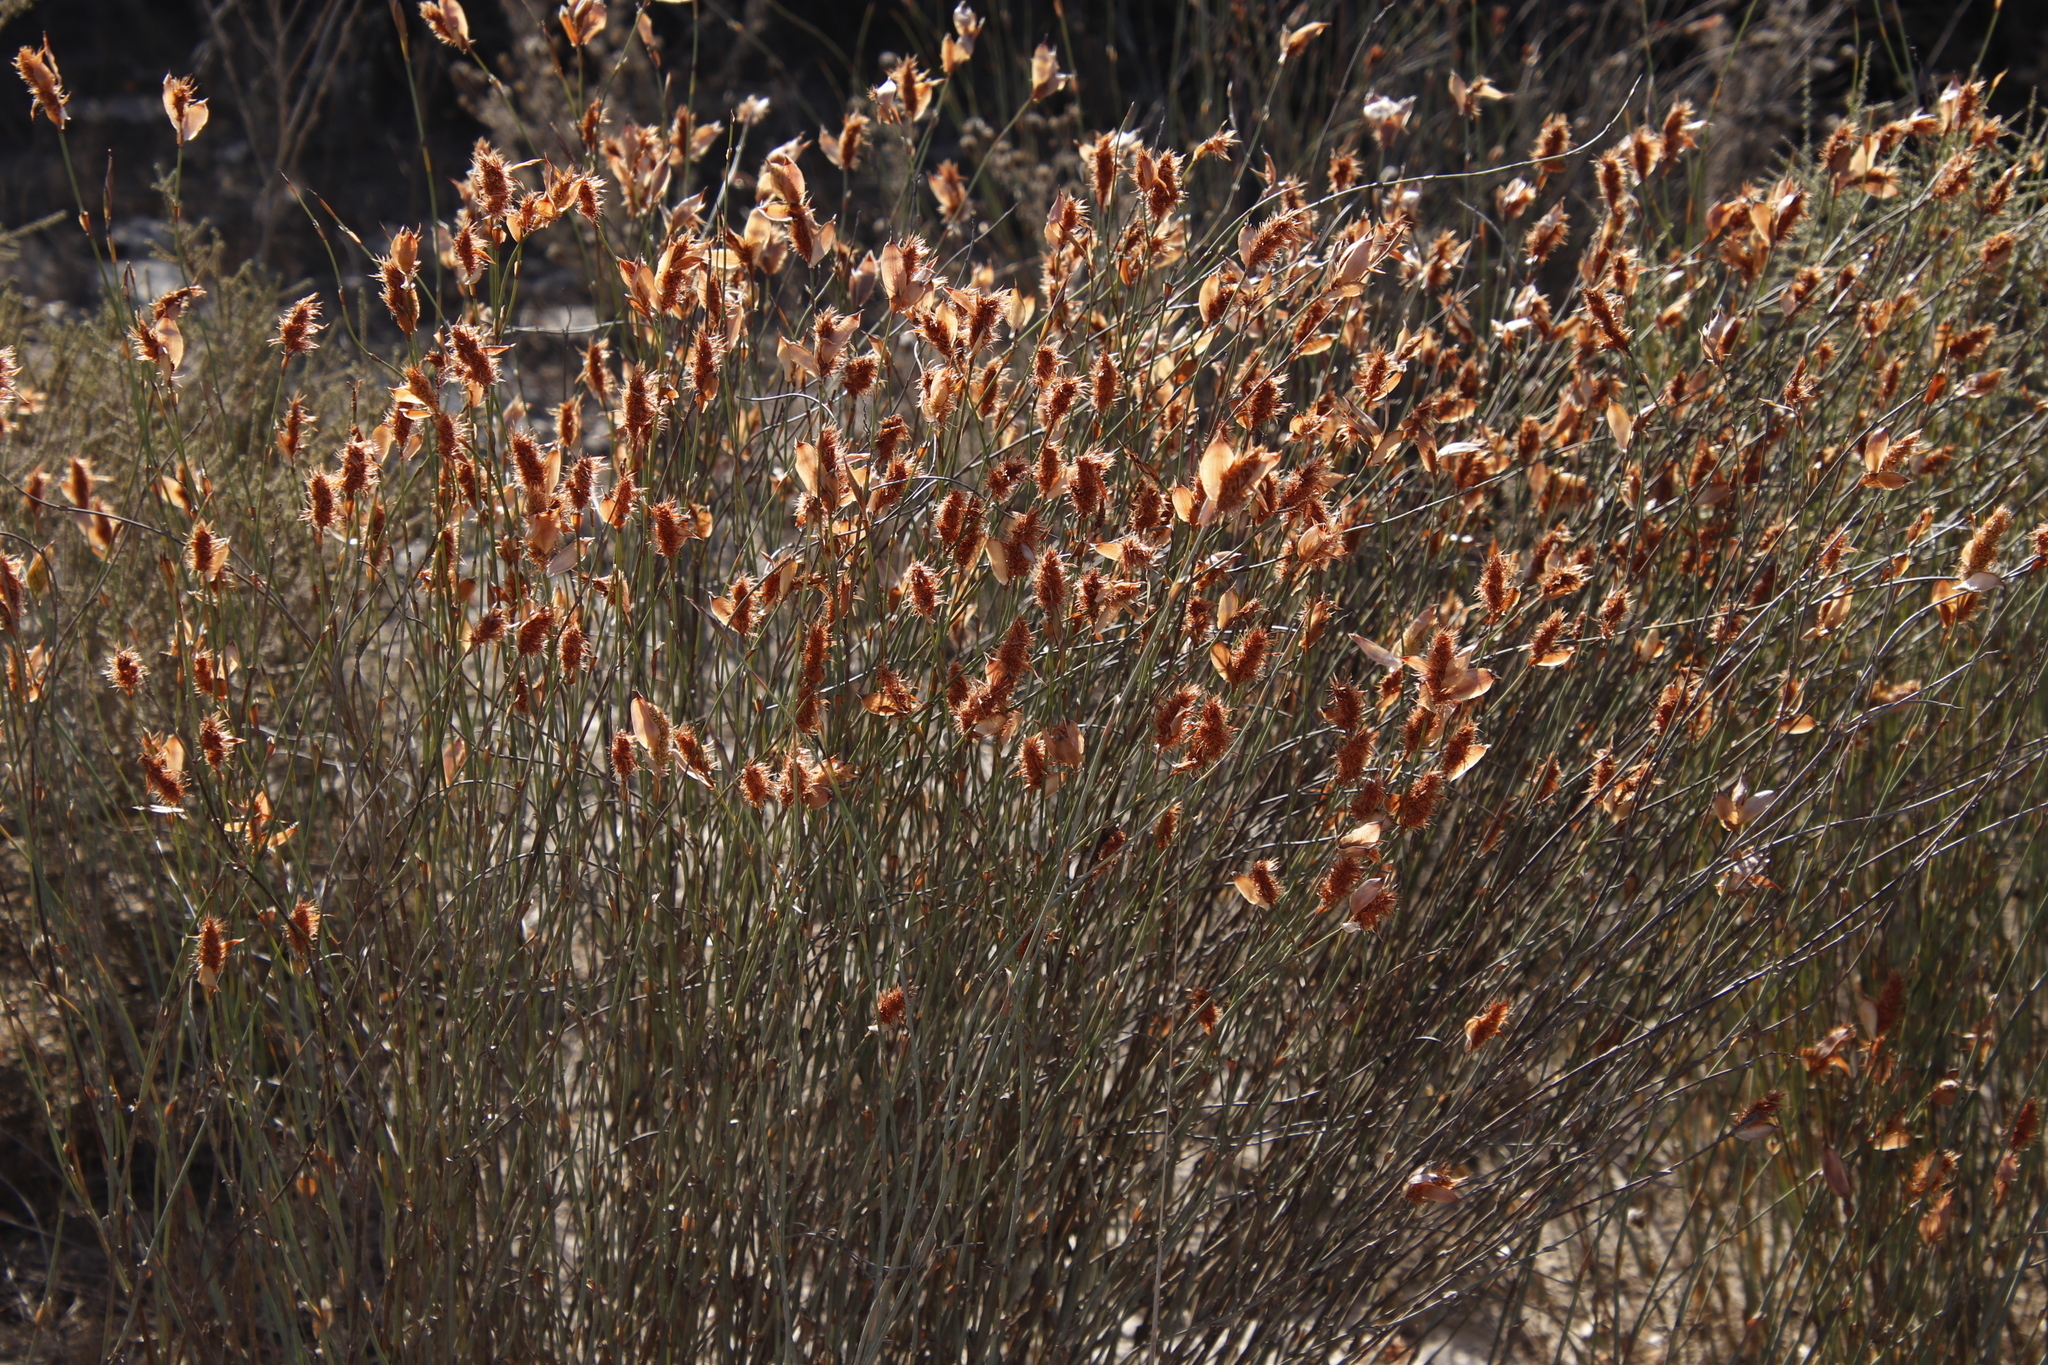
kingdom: Plantae
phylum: Tracheophyta
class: Liliopsida
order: Poales
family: Restionaceae
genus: Willdenowia
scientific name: Willdenowia incurvata
